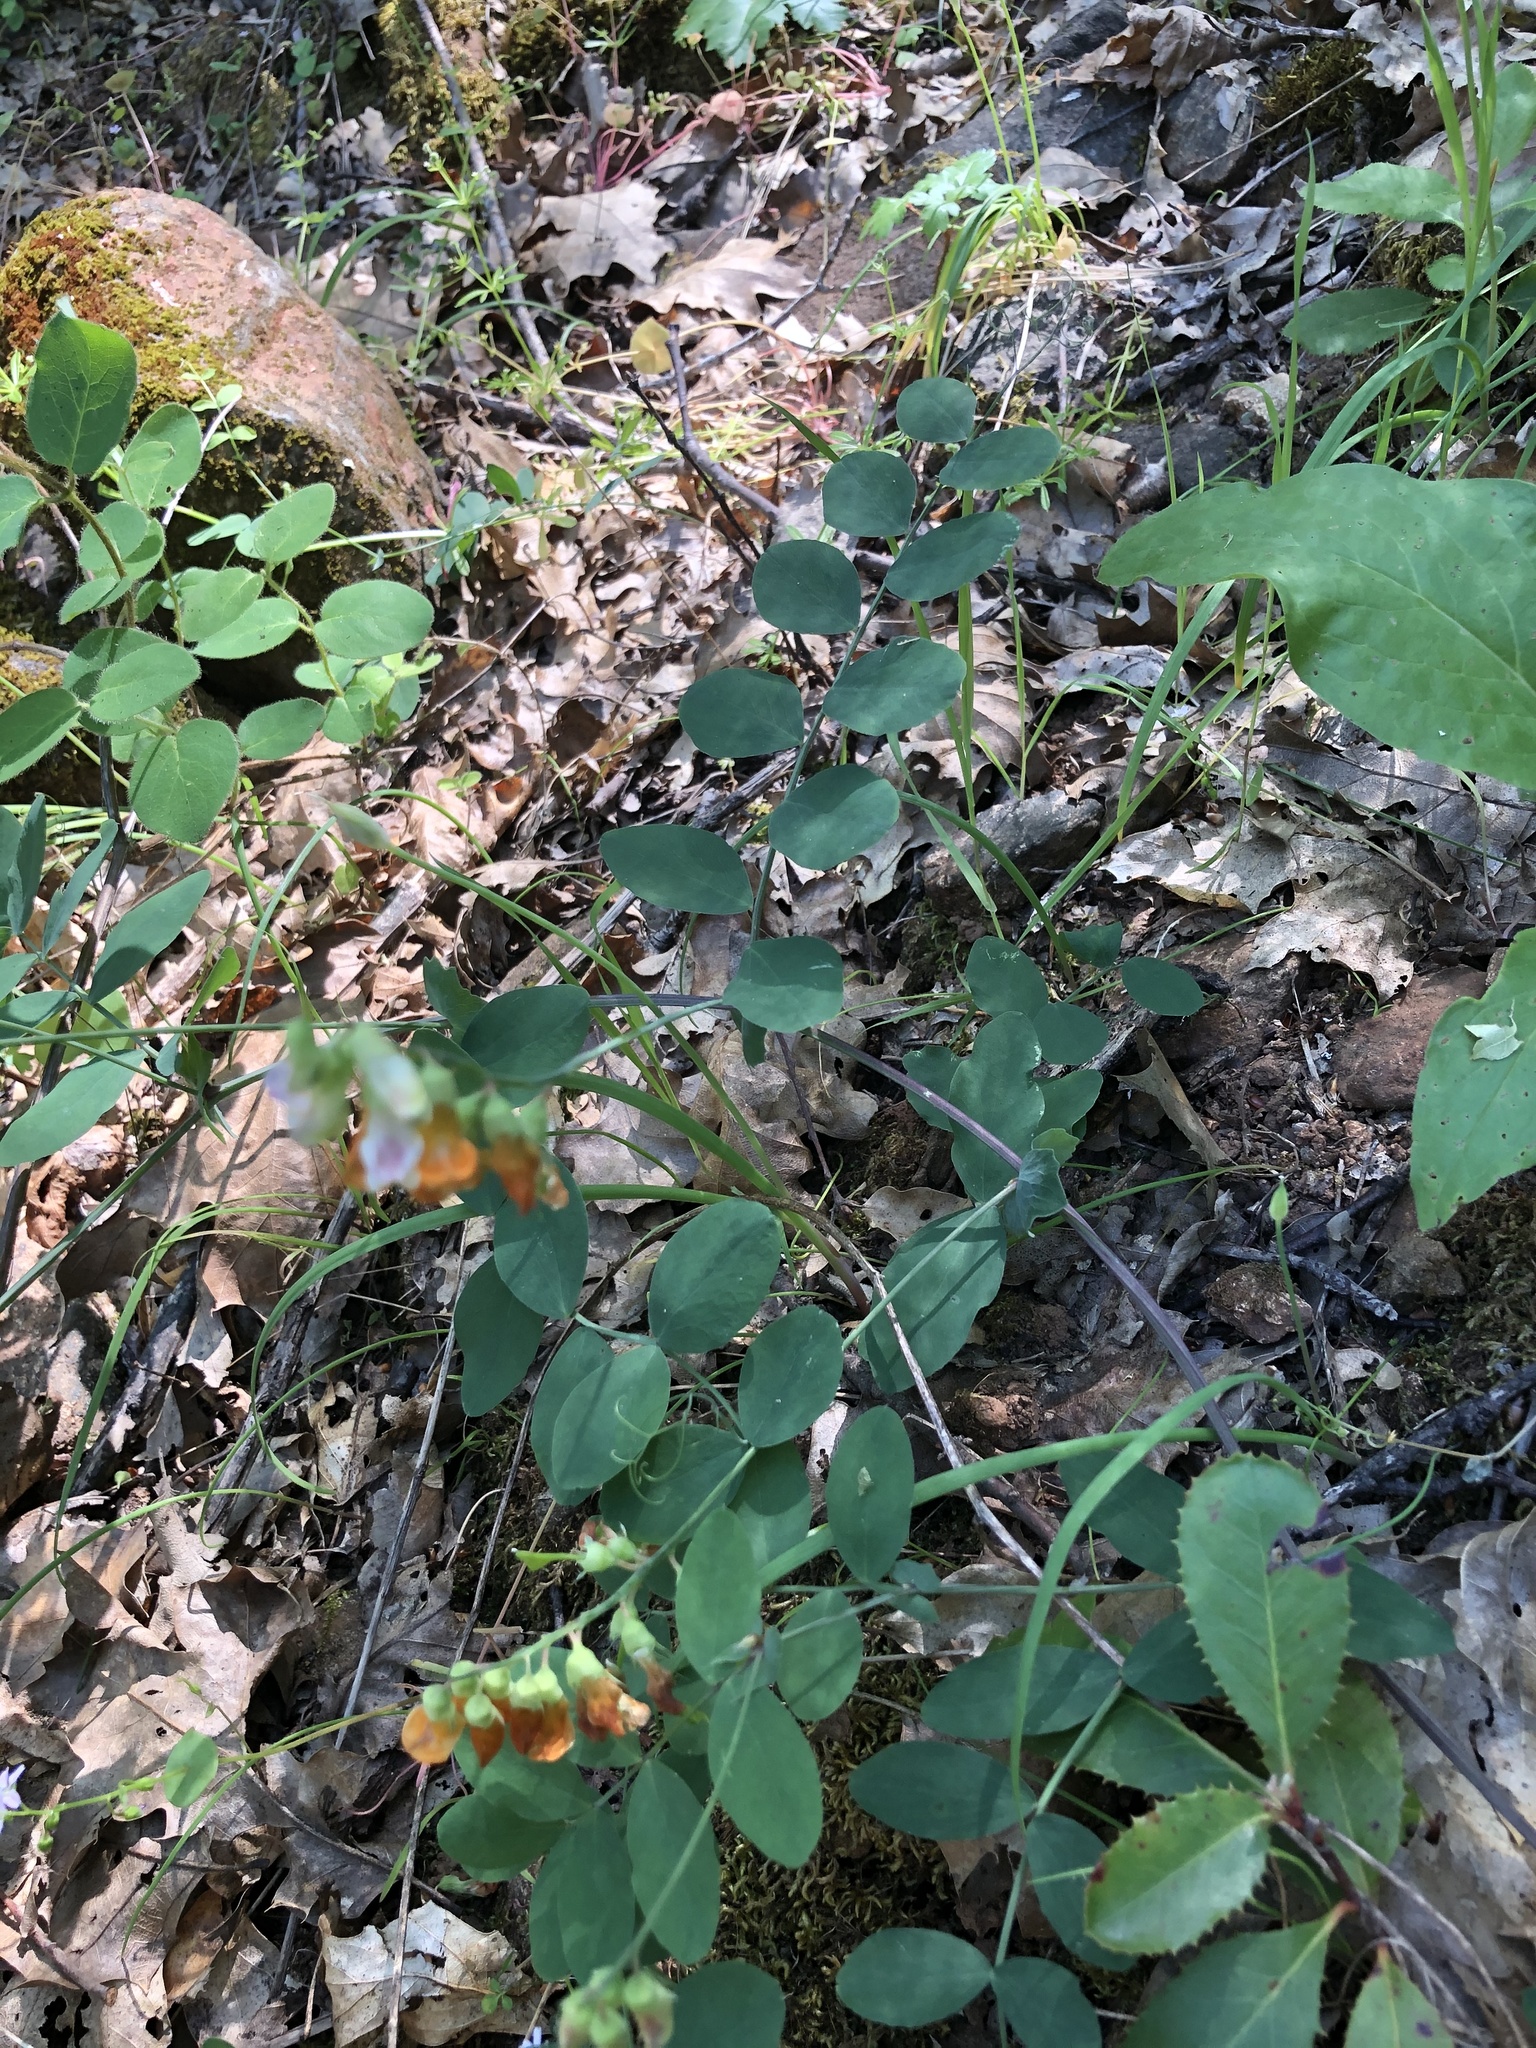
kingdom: Plantae
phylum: Tracheophyta
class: Magnoliopsida
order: Fabales
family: Fabaceae
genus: Lathyrus
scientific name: Lathyrus sulphureus
